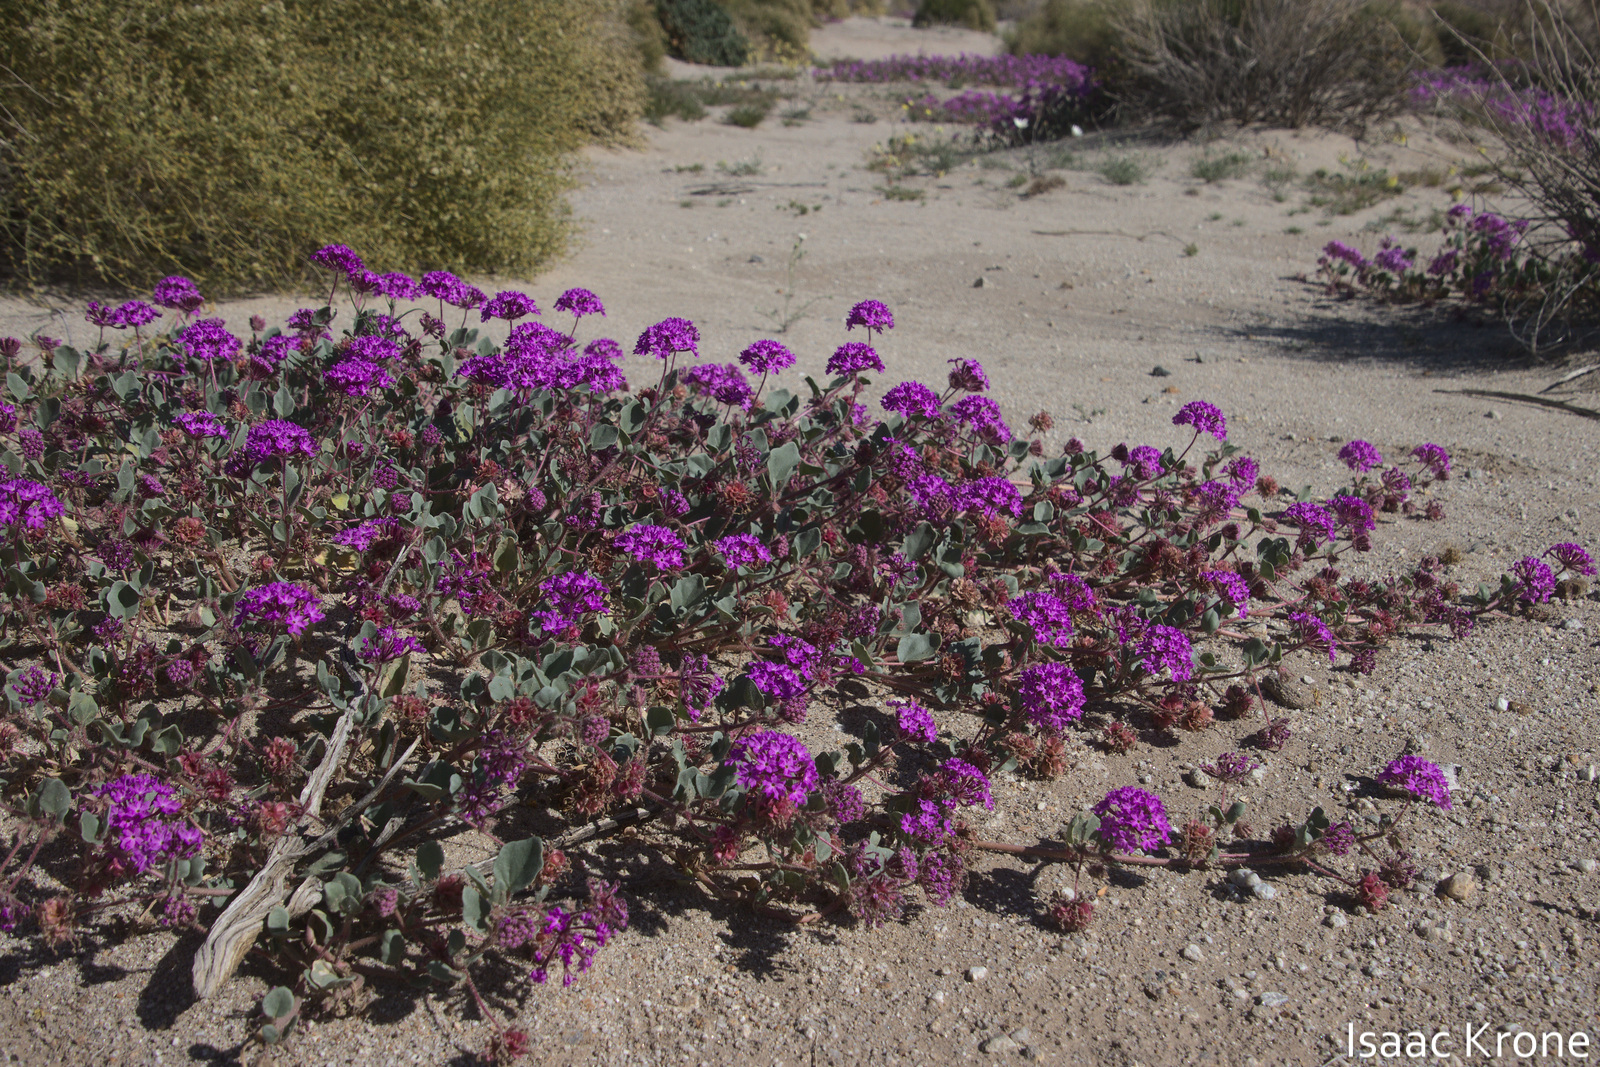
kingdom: Plantae
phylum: Tracheophyta
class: Magnoliopsida
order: Caryophyllales
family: Nyctaginaceae
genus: Abronia
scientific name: Abronia villosa
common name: Desert sand-verbena
